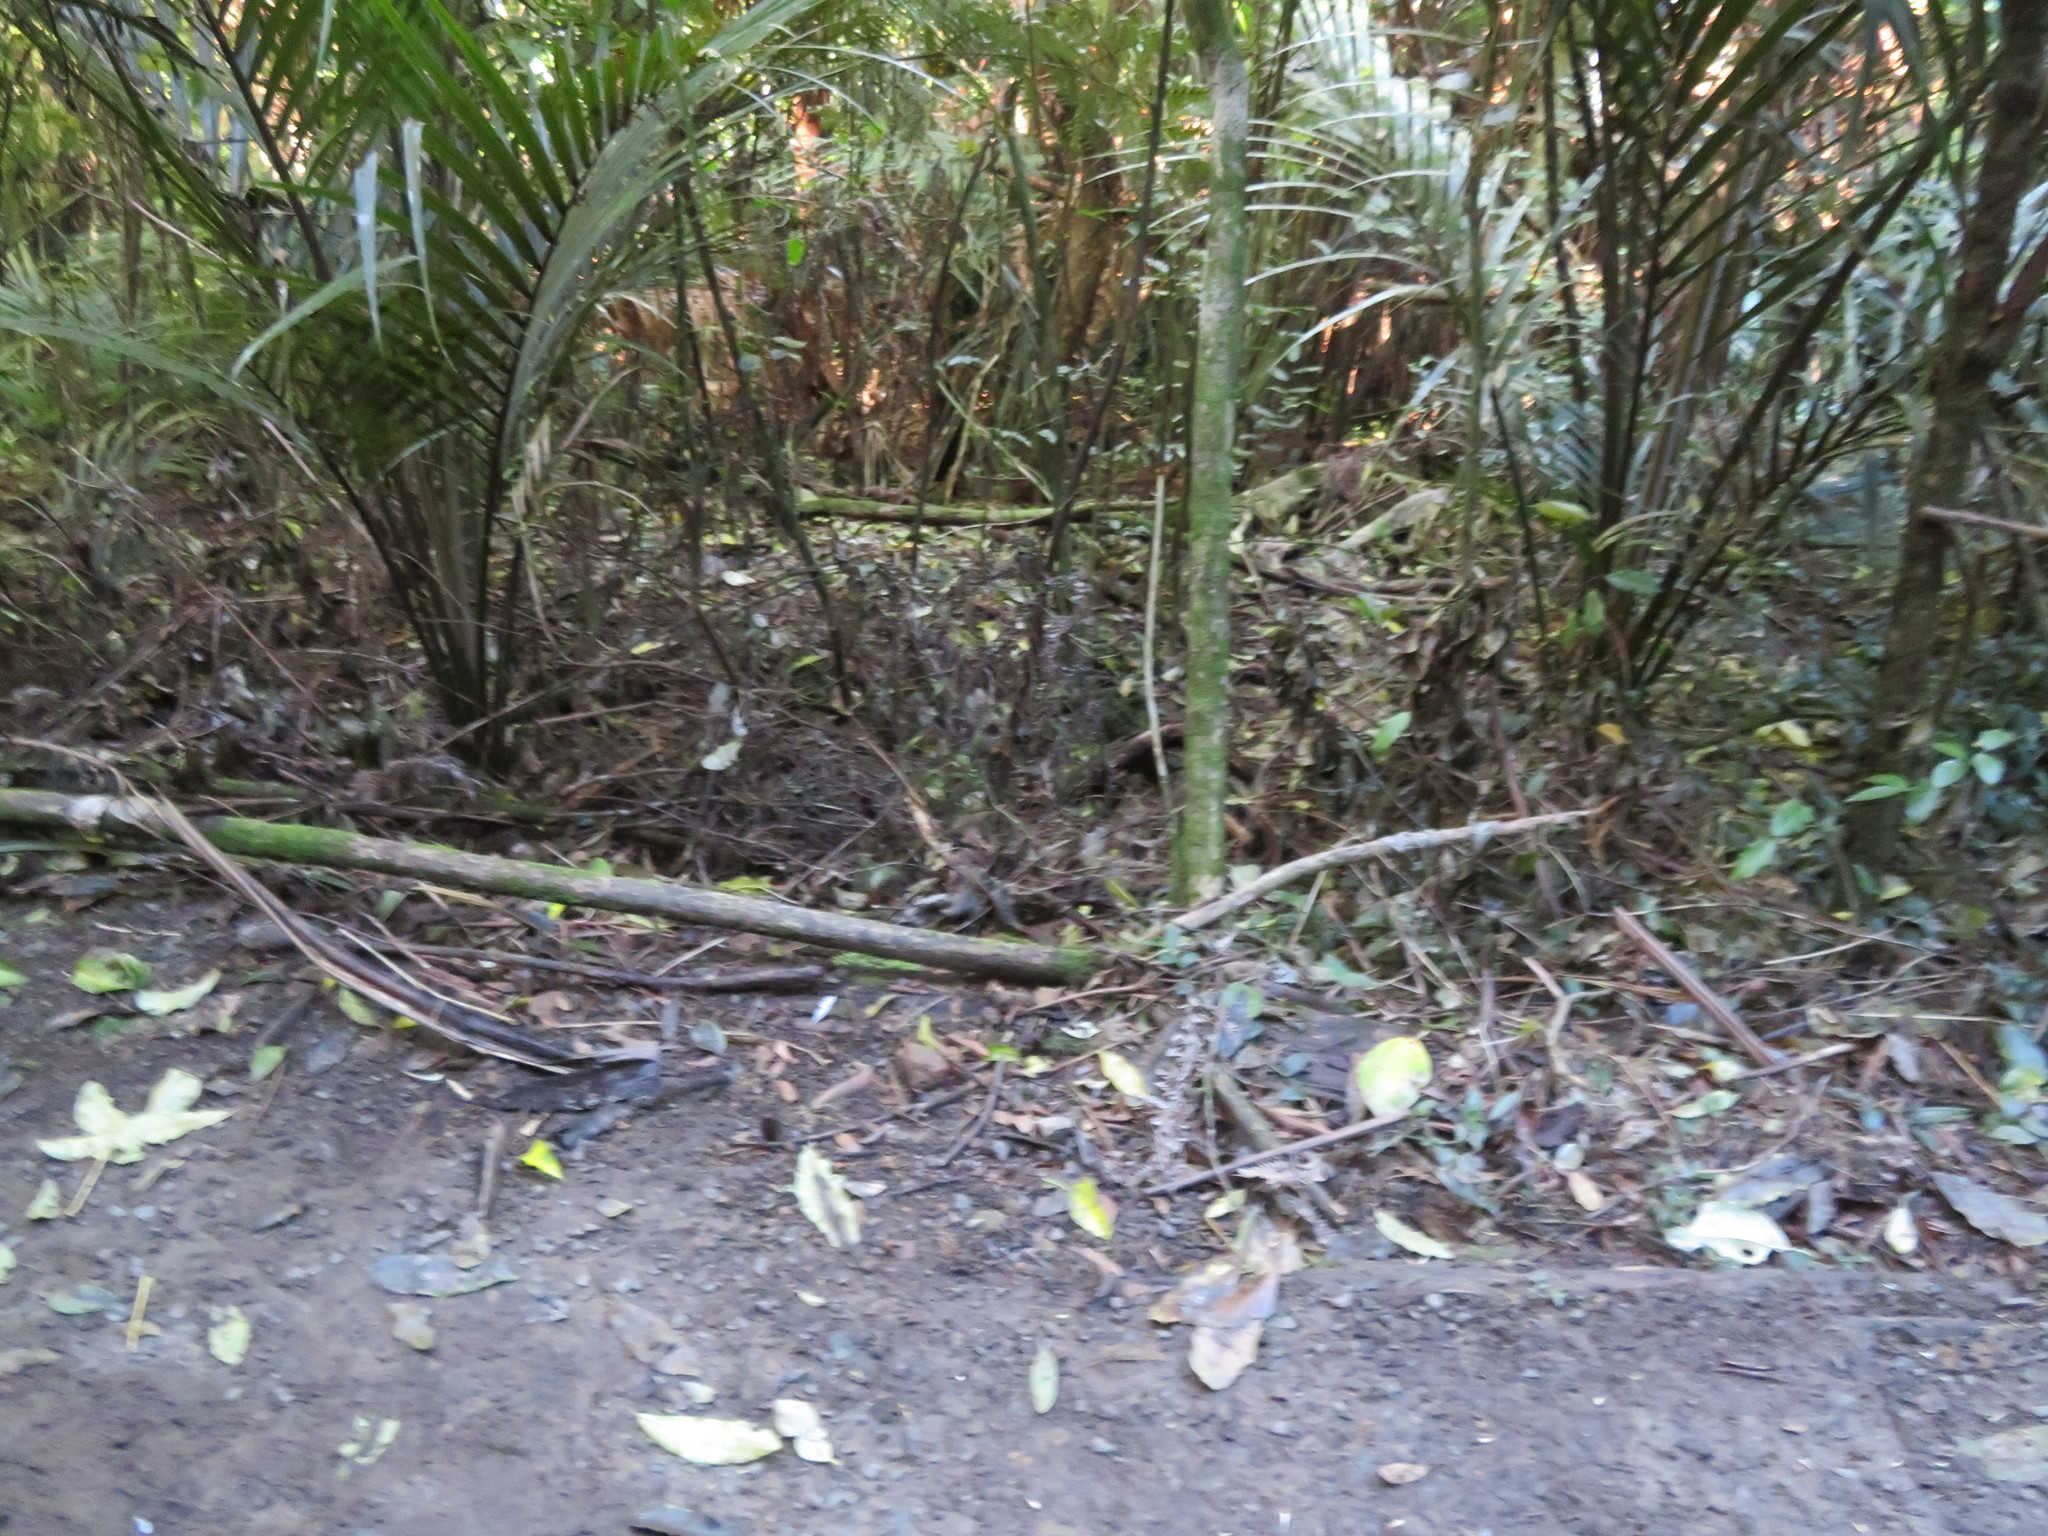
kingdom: Plantae
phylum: Tracheophyta
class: Liliopsida
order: Arecales
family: Arecaceae
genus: Rhopalostylis
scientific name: Rhopalostylis sapida
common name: Feather-duster palm
